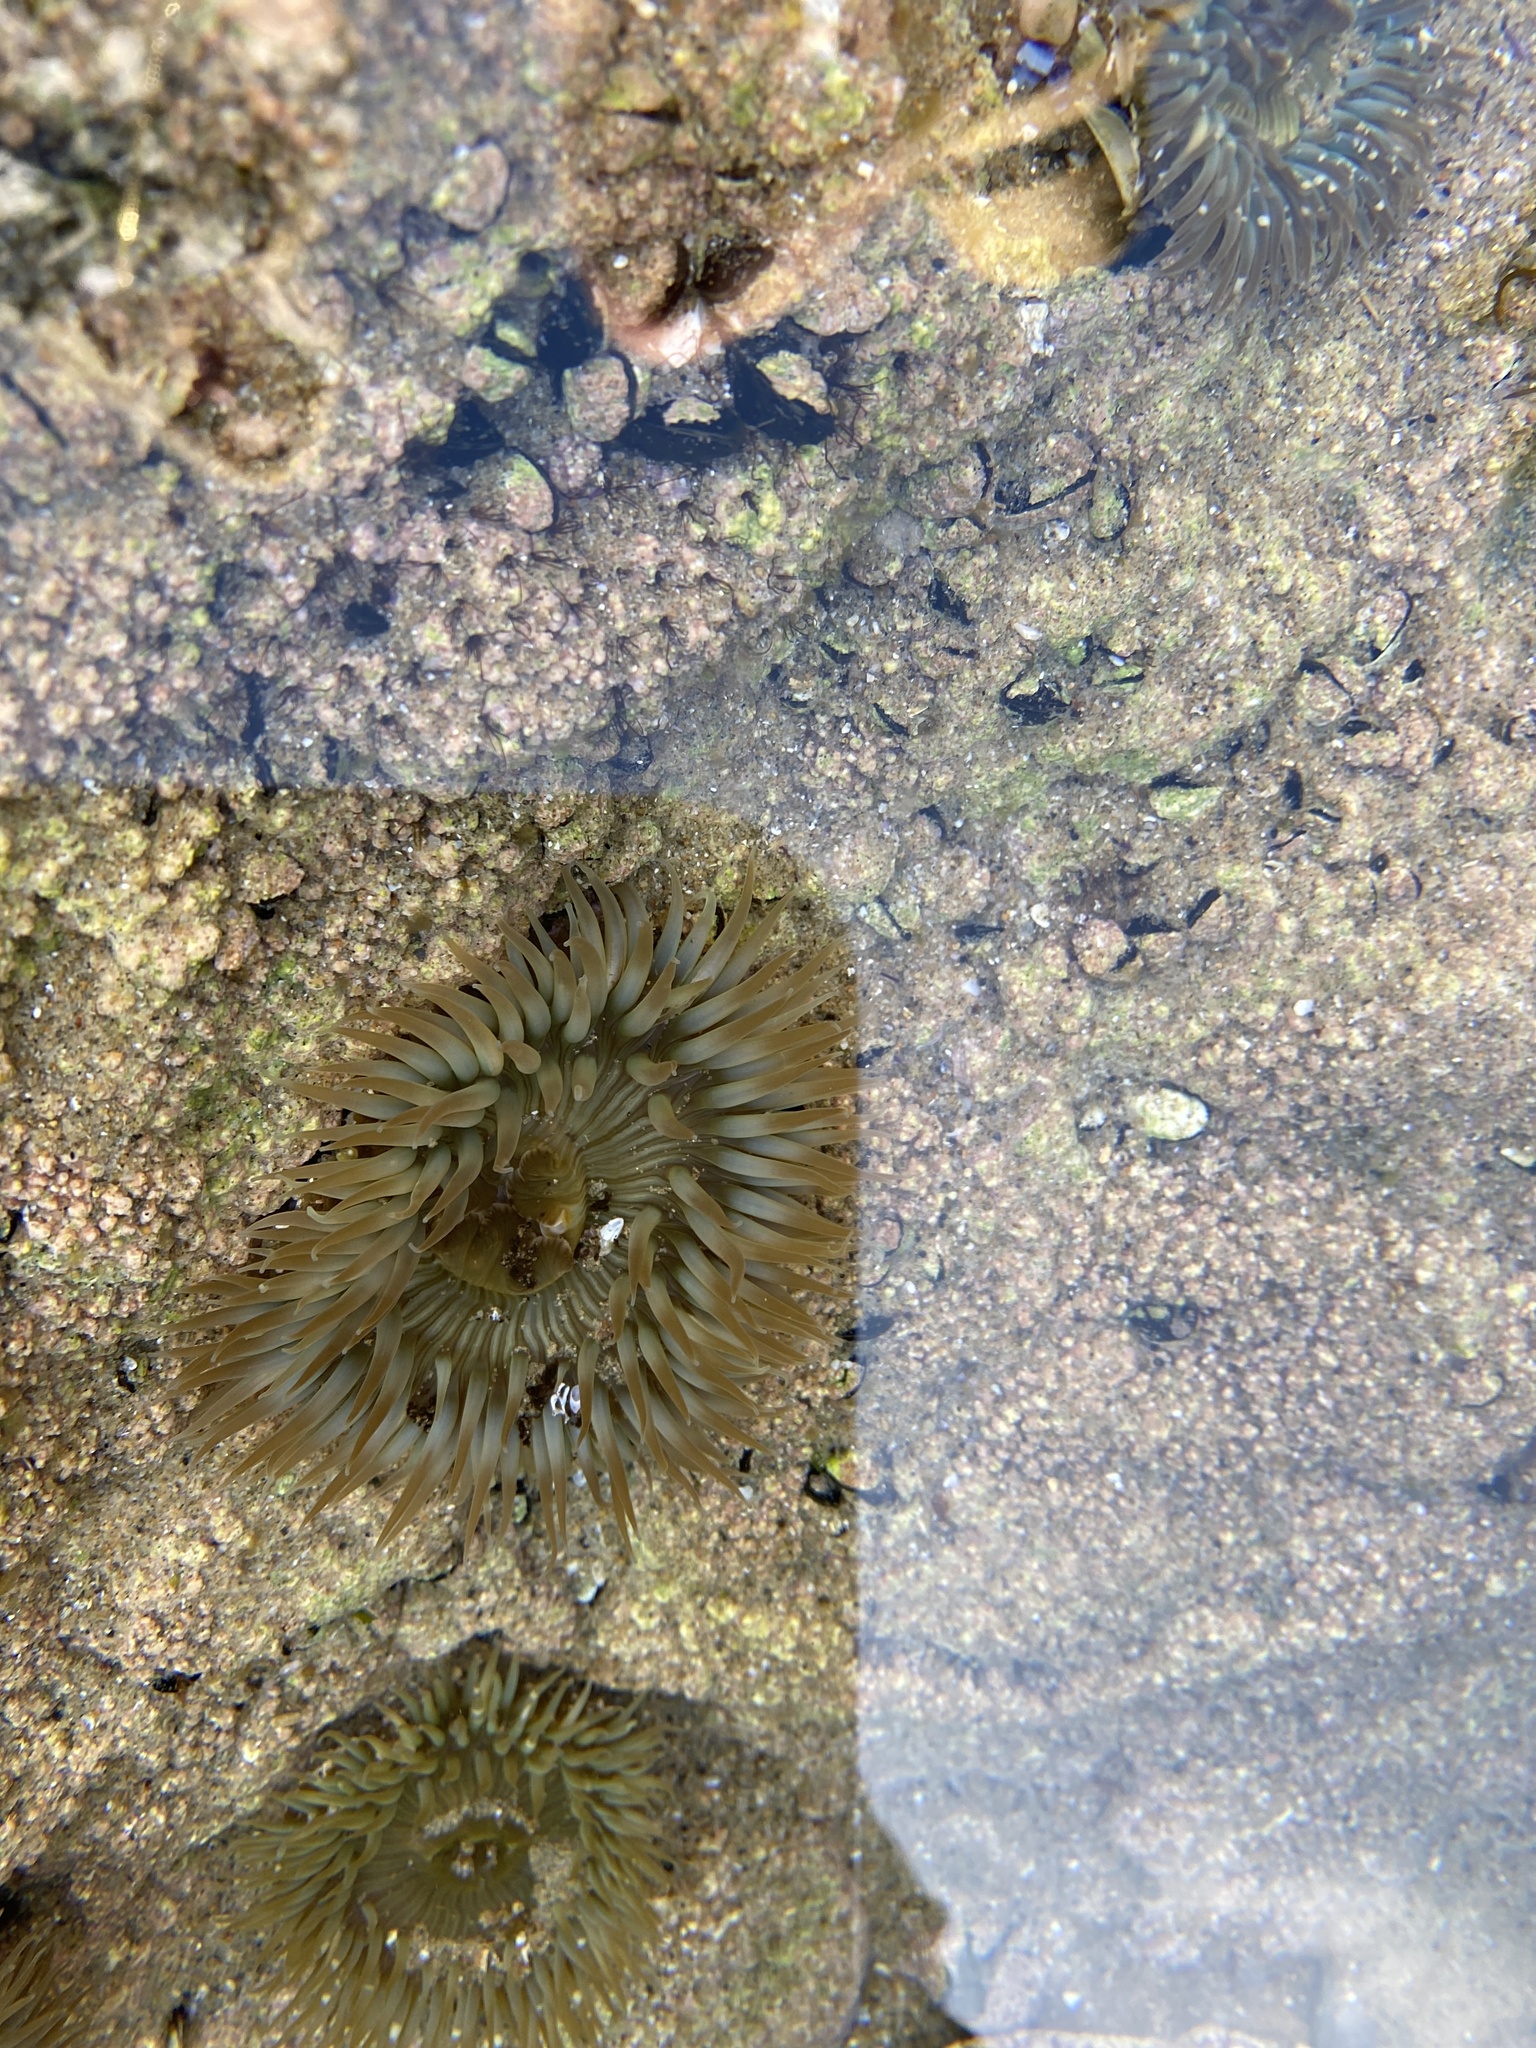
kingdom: Animalia
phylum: Cnidaria
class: Anthozoa
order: Actiniaria
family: Actiniidae
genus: Anthopleura
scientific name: Anthopleura sola
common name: Sun anemone
